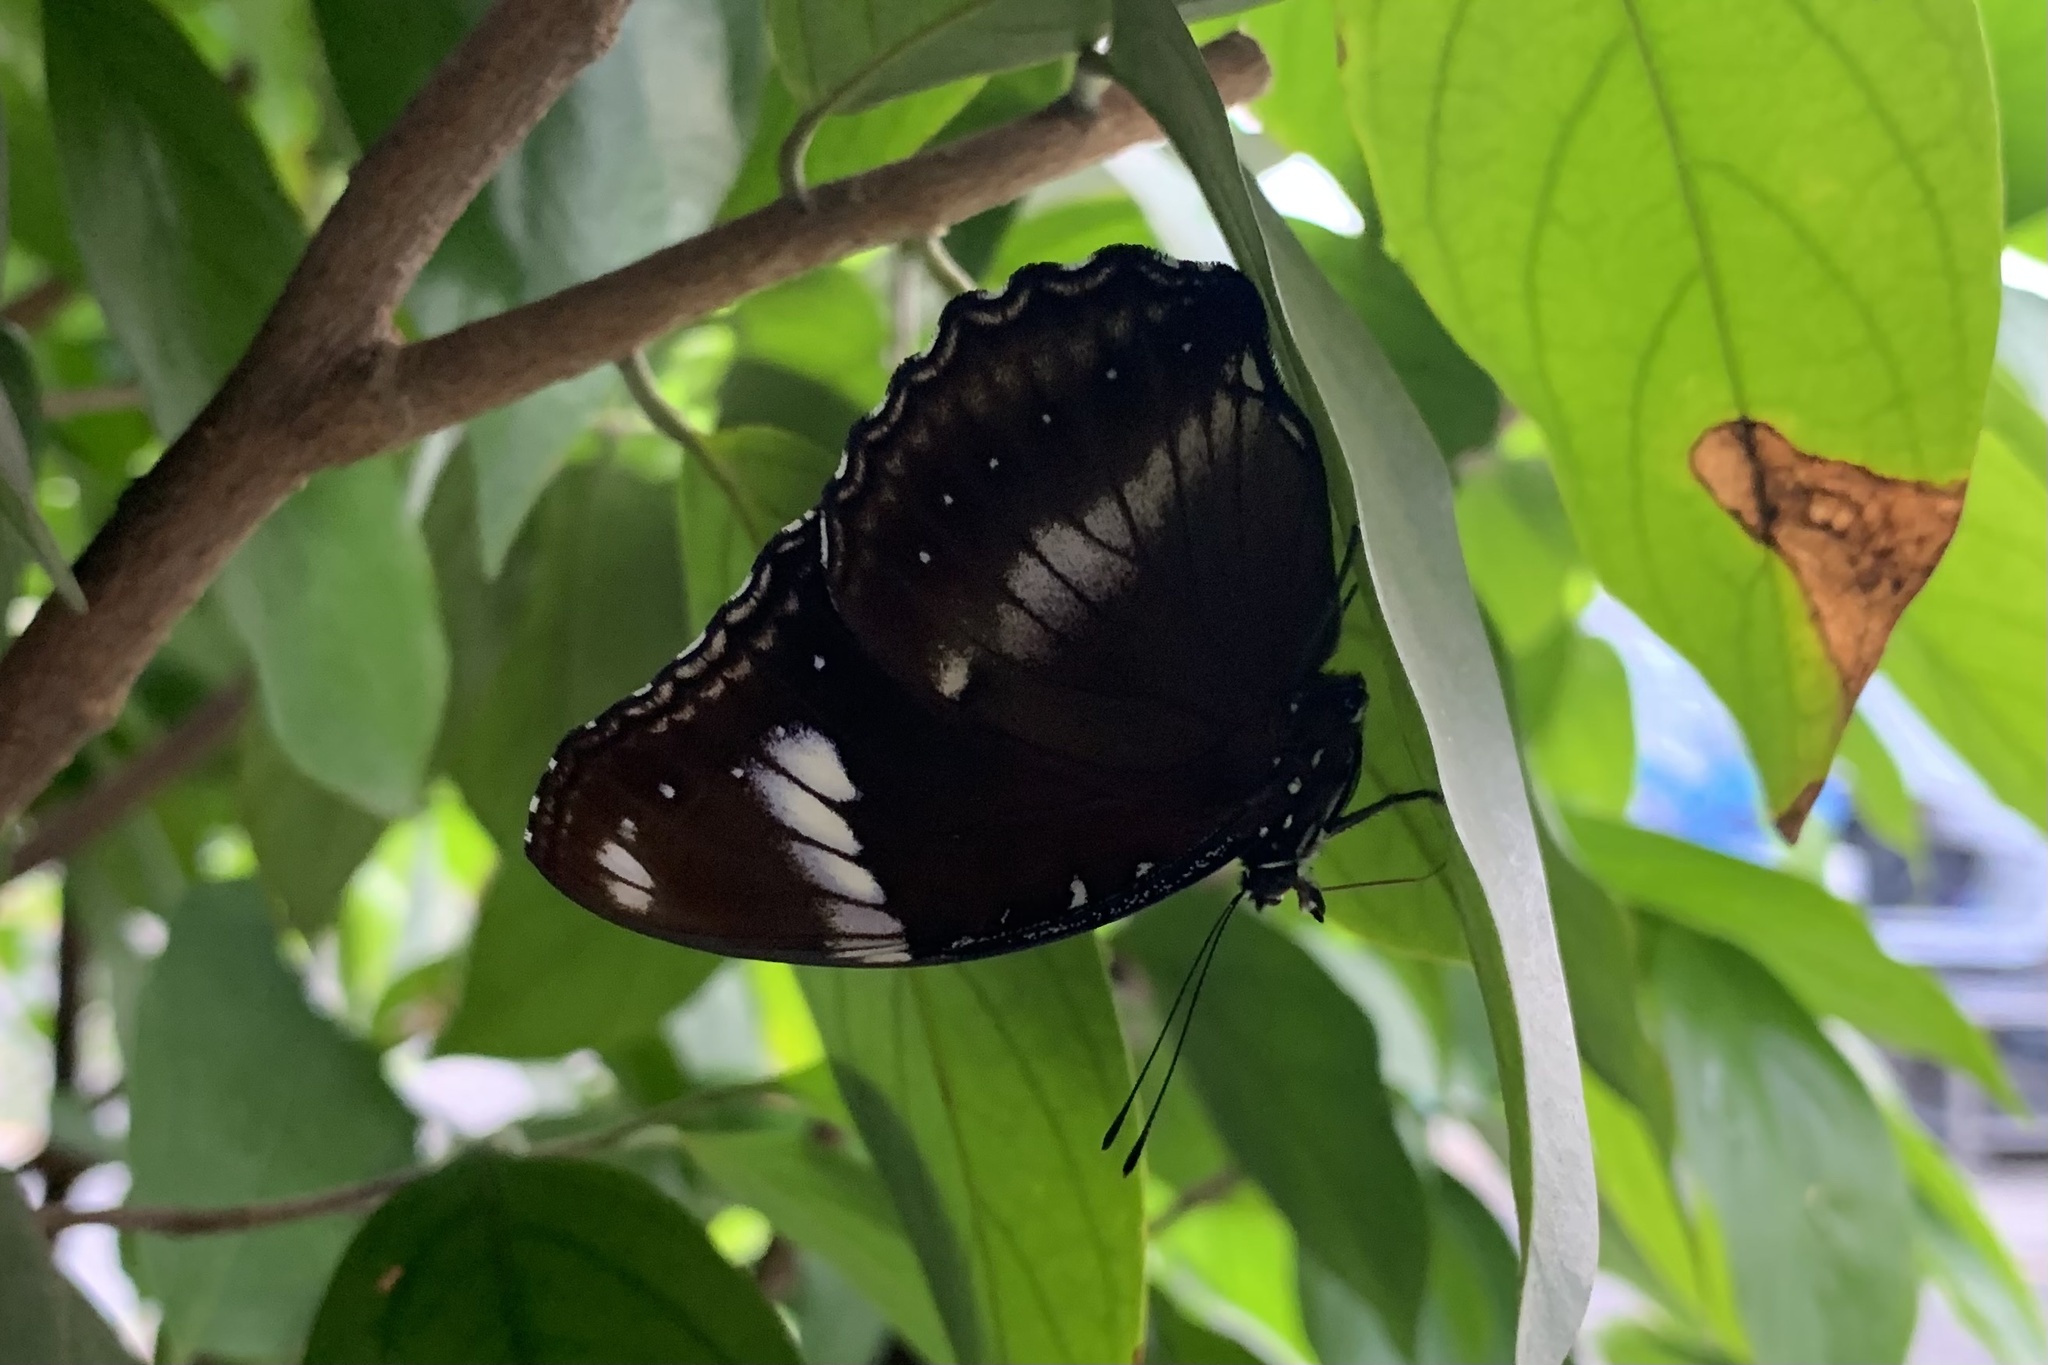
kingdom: Animalia
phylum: Arthropoda
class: Insecta
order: Lepidoptera
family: Nymphalidae
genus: Hypolimnas
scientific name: Hypolimnas bolina
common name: Great eggfly
